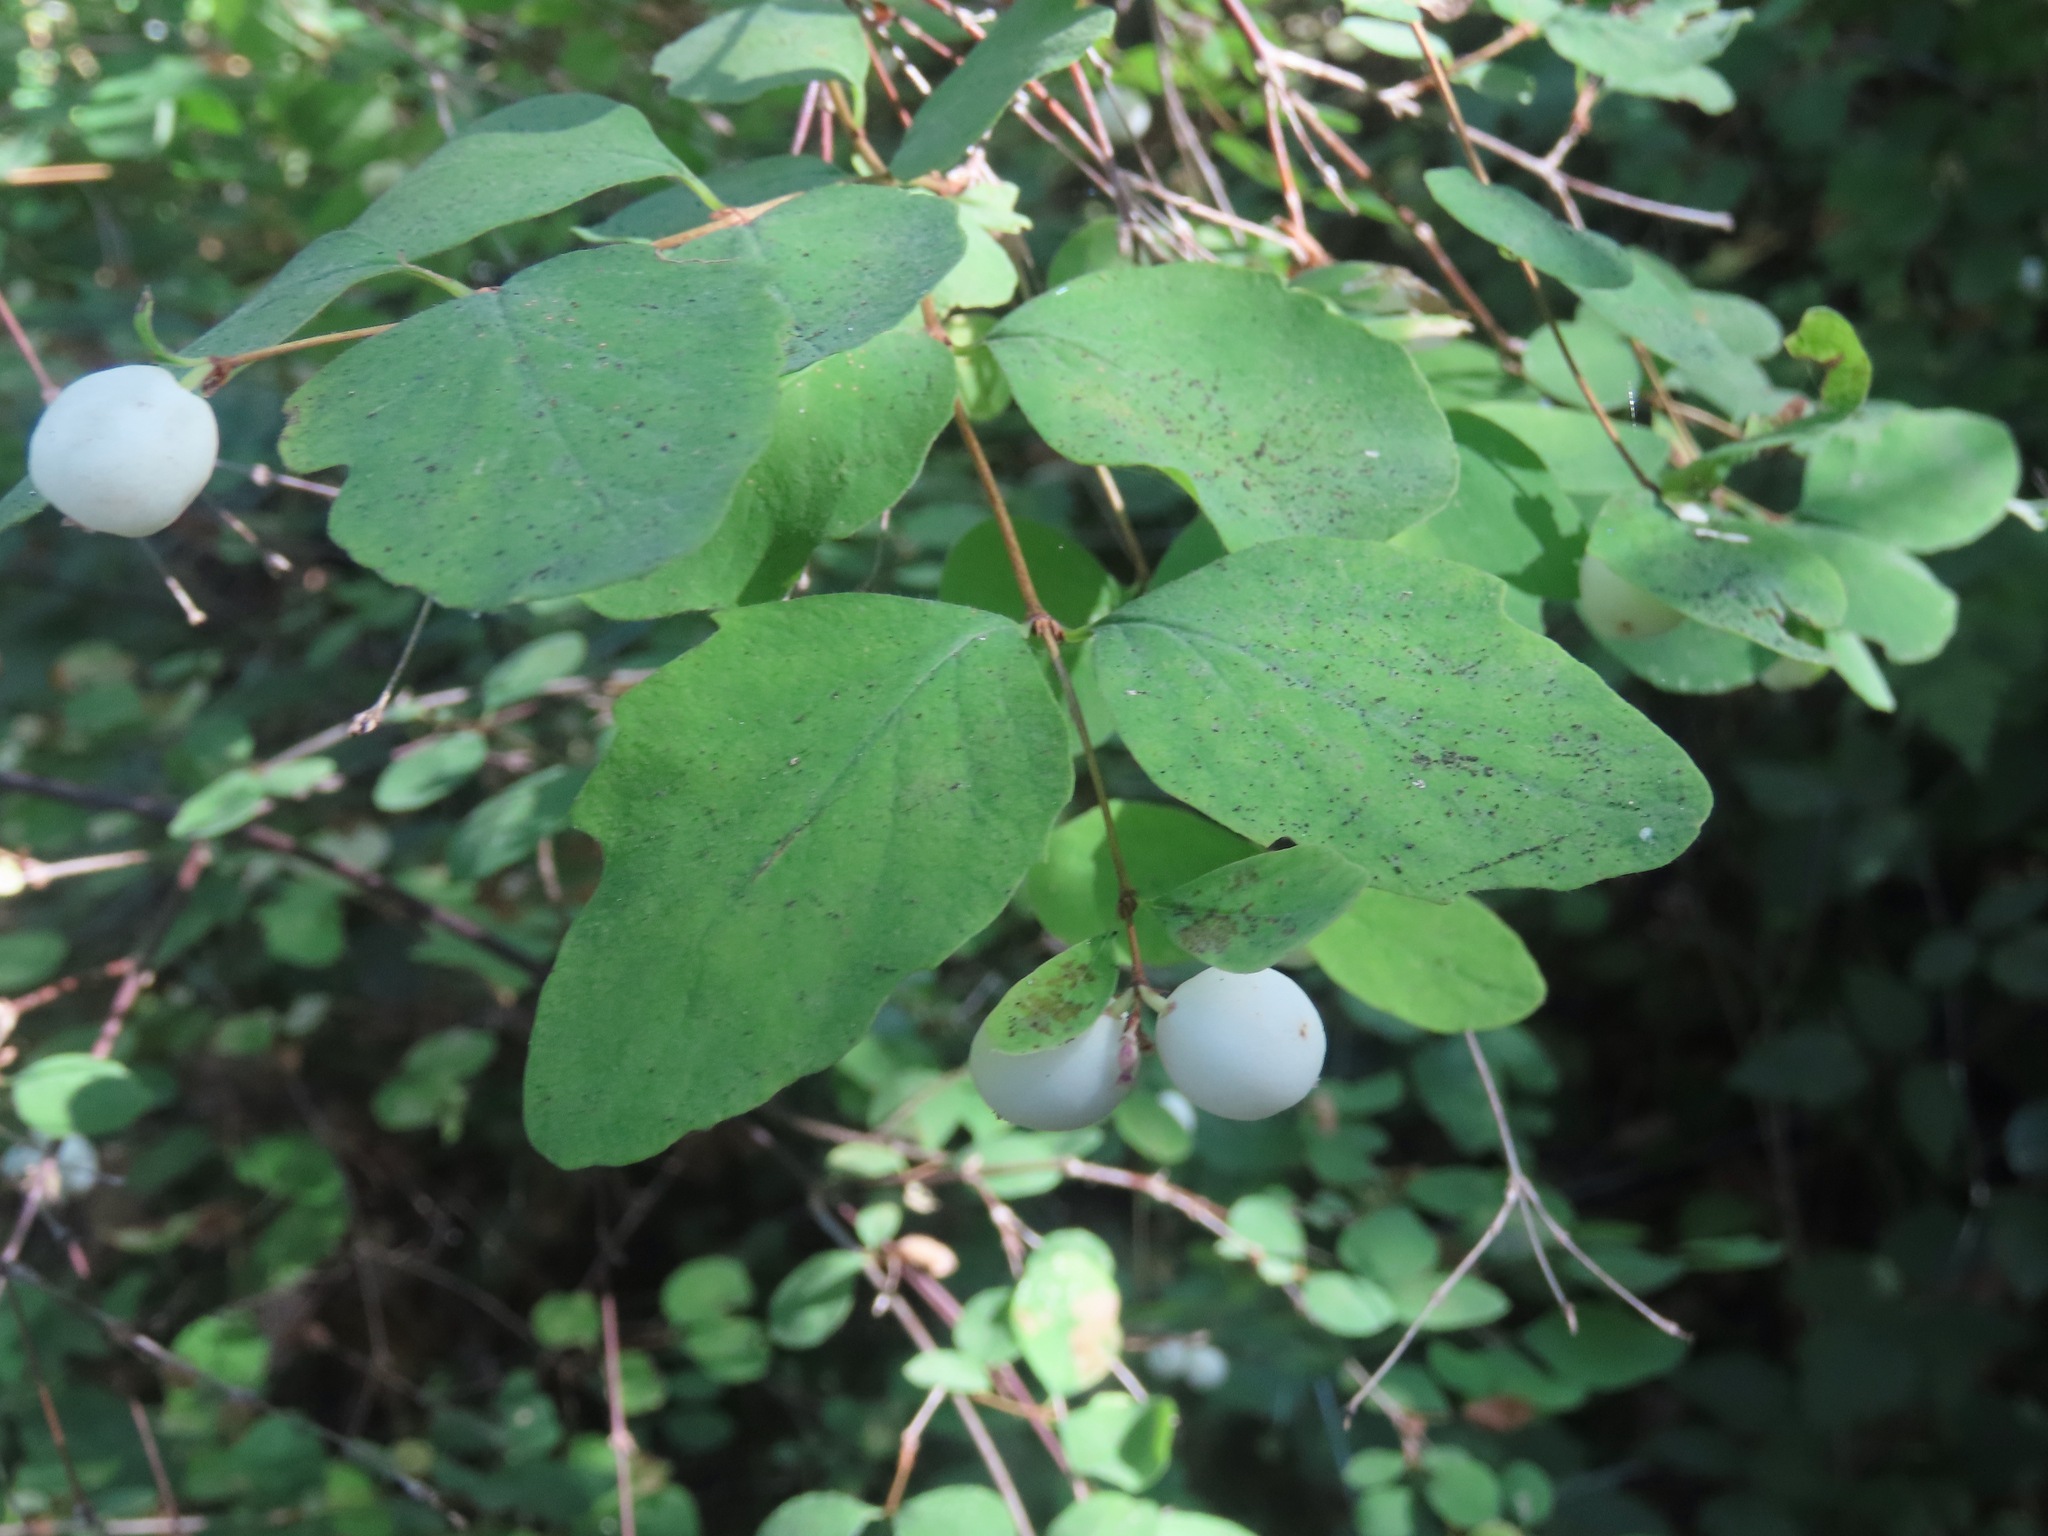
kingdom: Plantae
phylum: Tracheophyta
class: Magnoliopsida
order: Dipsacales
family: Caprifoliaceae
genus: Symphoricarpos
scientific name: Symphoricarpos albus
